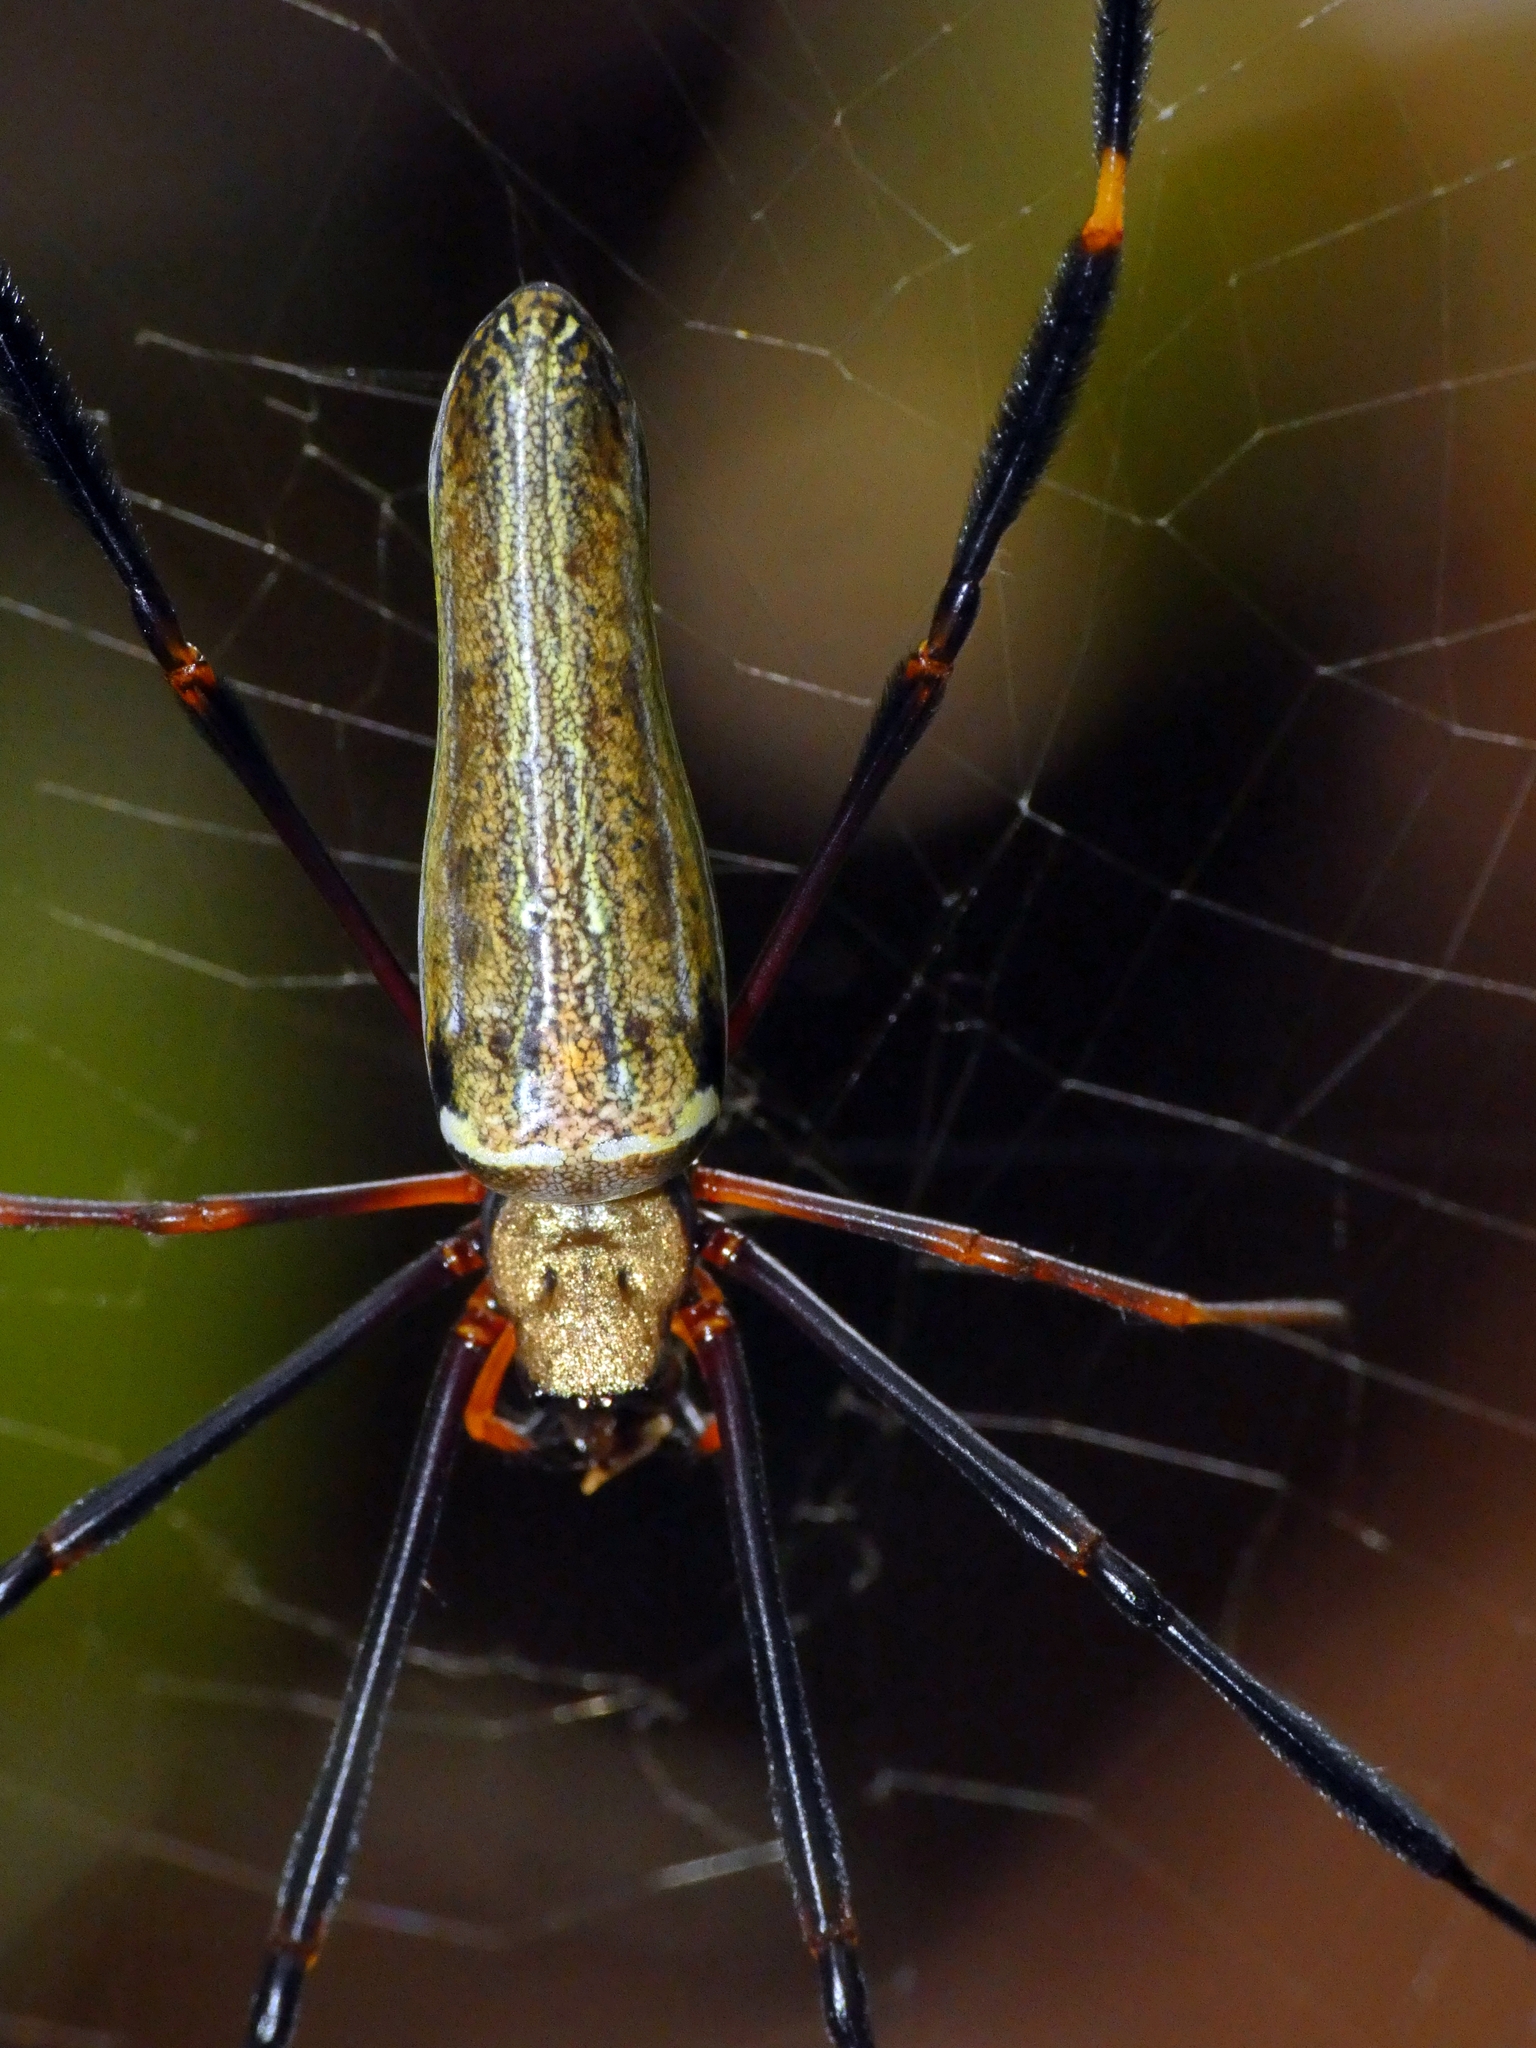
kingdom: Animalia
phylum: Arthropoda
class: Arachnida
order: Araneae
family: Araneidae
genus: Nephila
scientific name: Nephila pilipes
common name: Giant golden orb weaver
